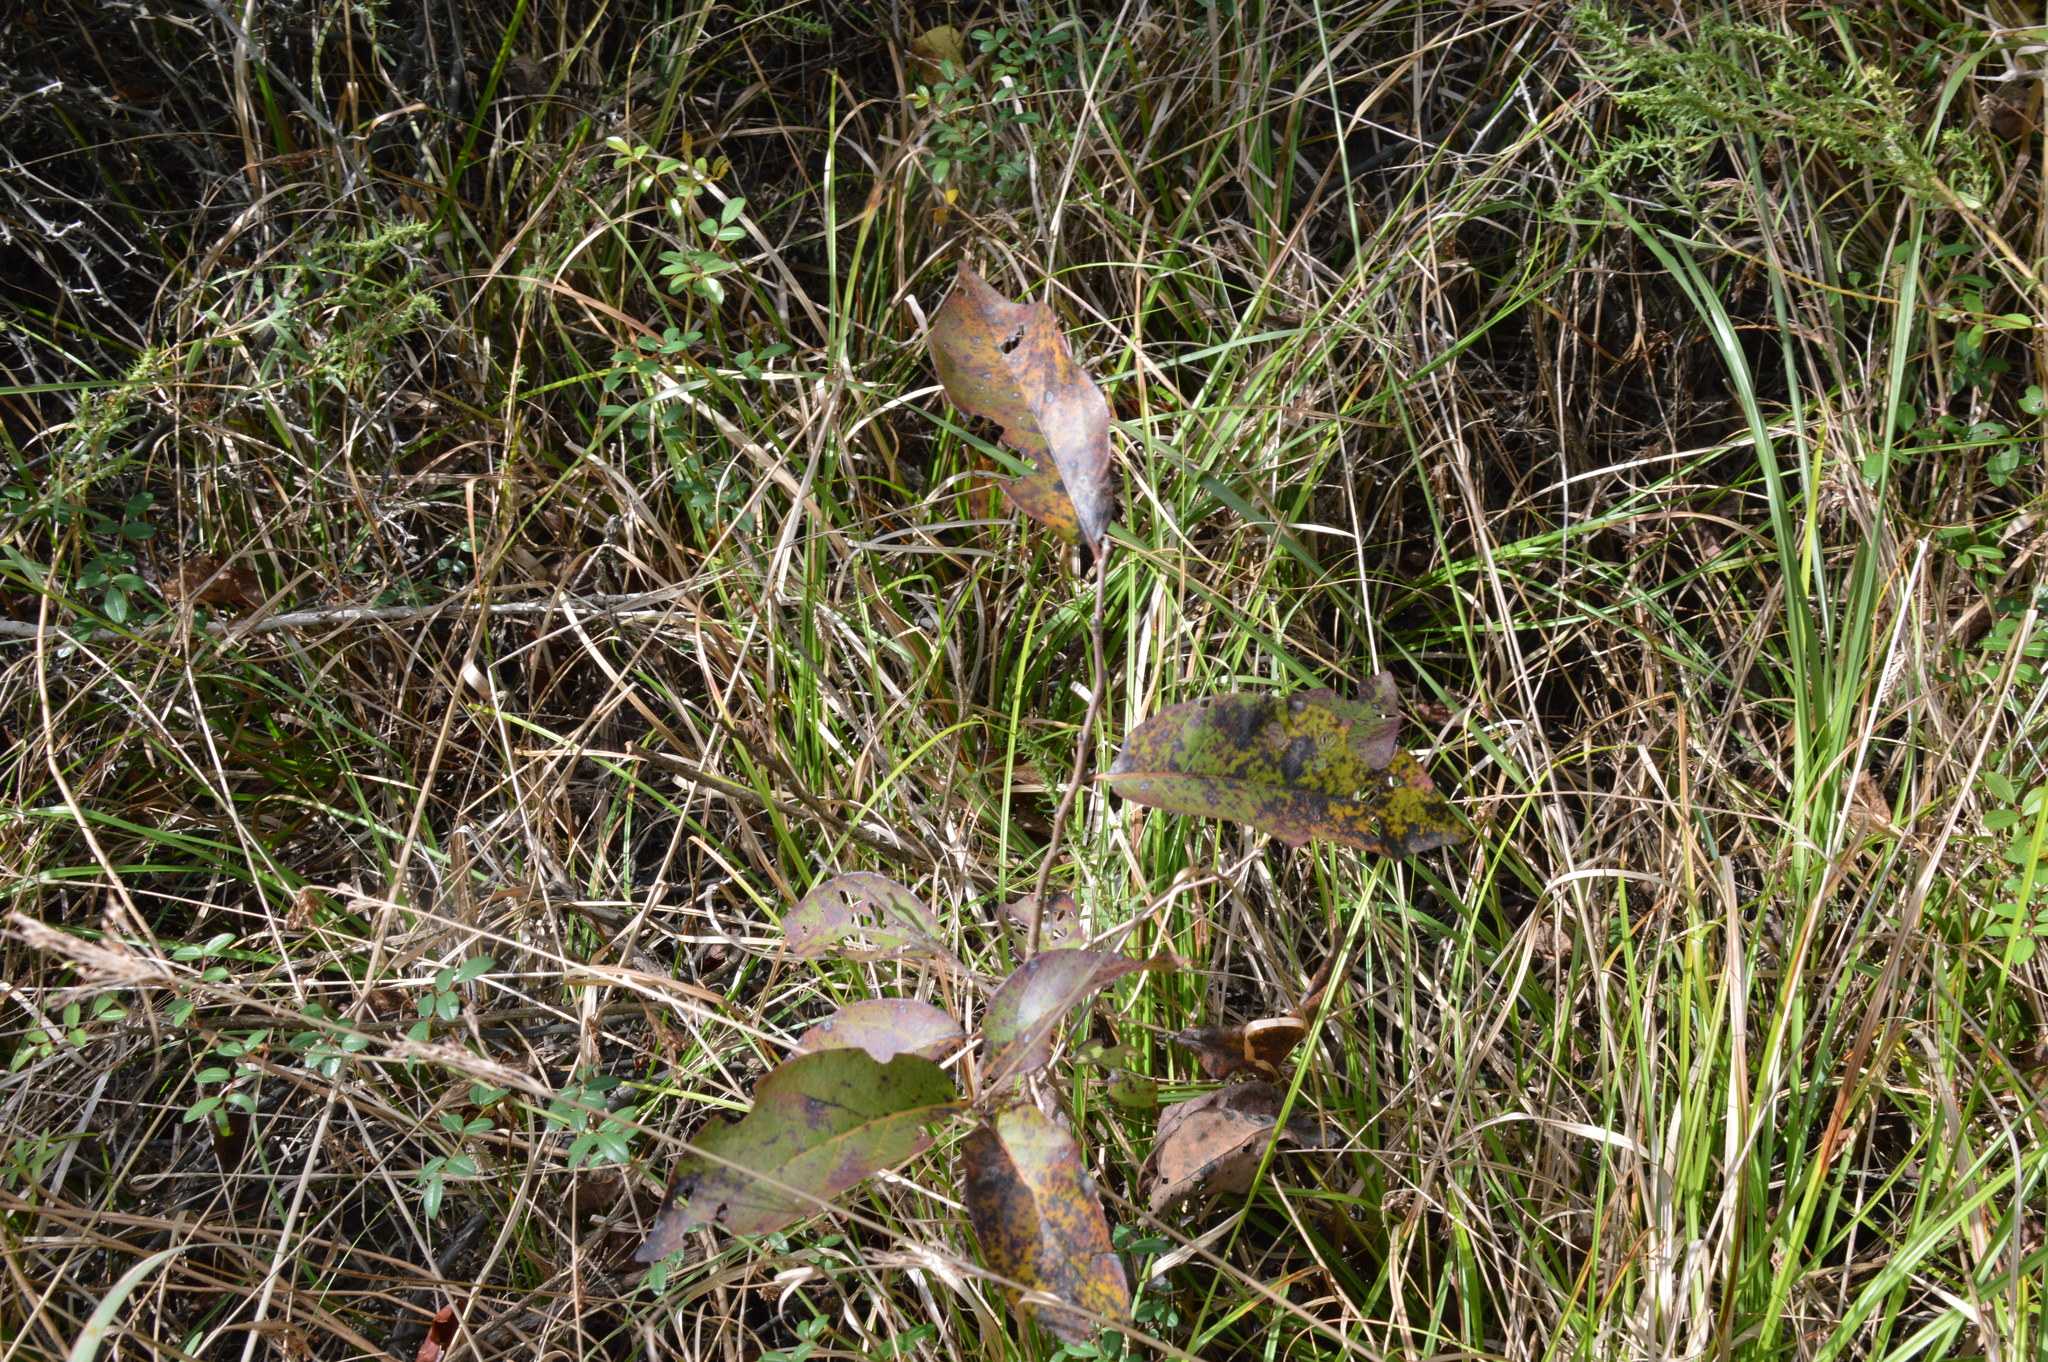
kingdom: Plantae
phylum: Tracheophyta
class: Magnoliopsida
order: Ericales
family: Ebenaceae
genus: Diospyros
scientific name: Diospyros virginiana
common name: Persimmon
